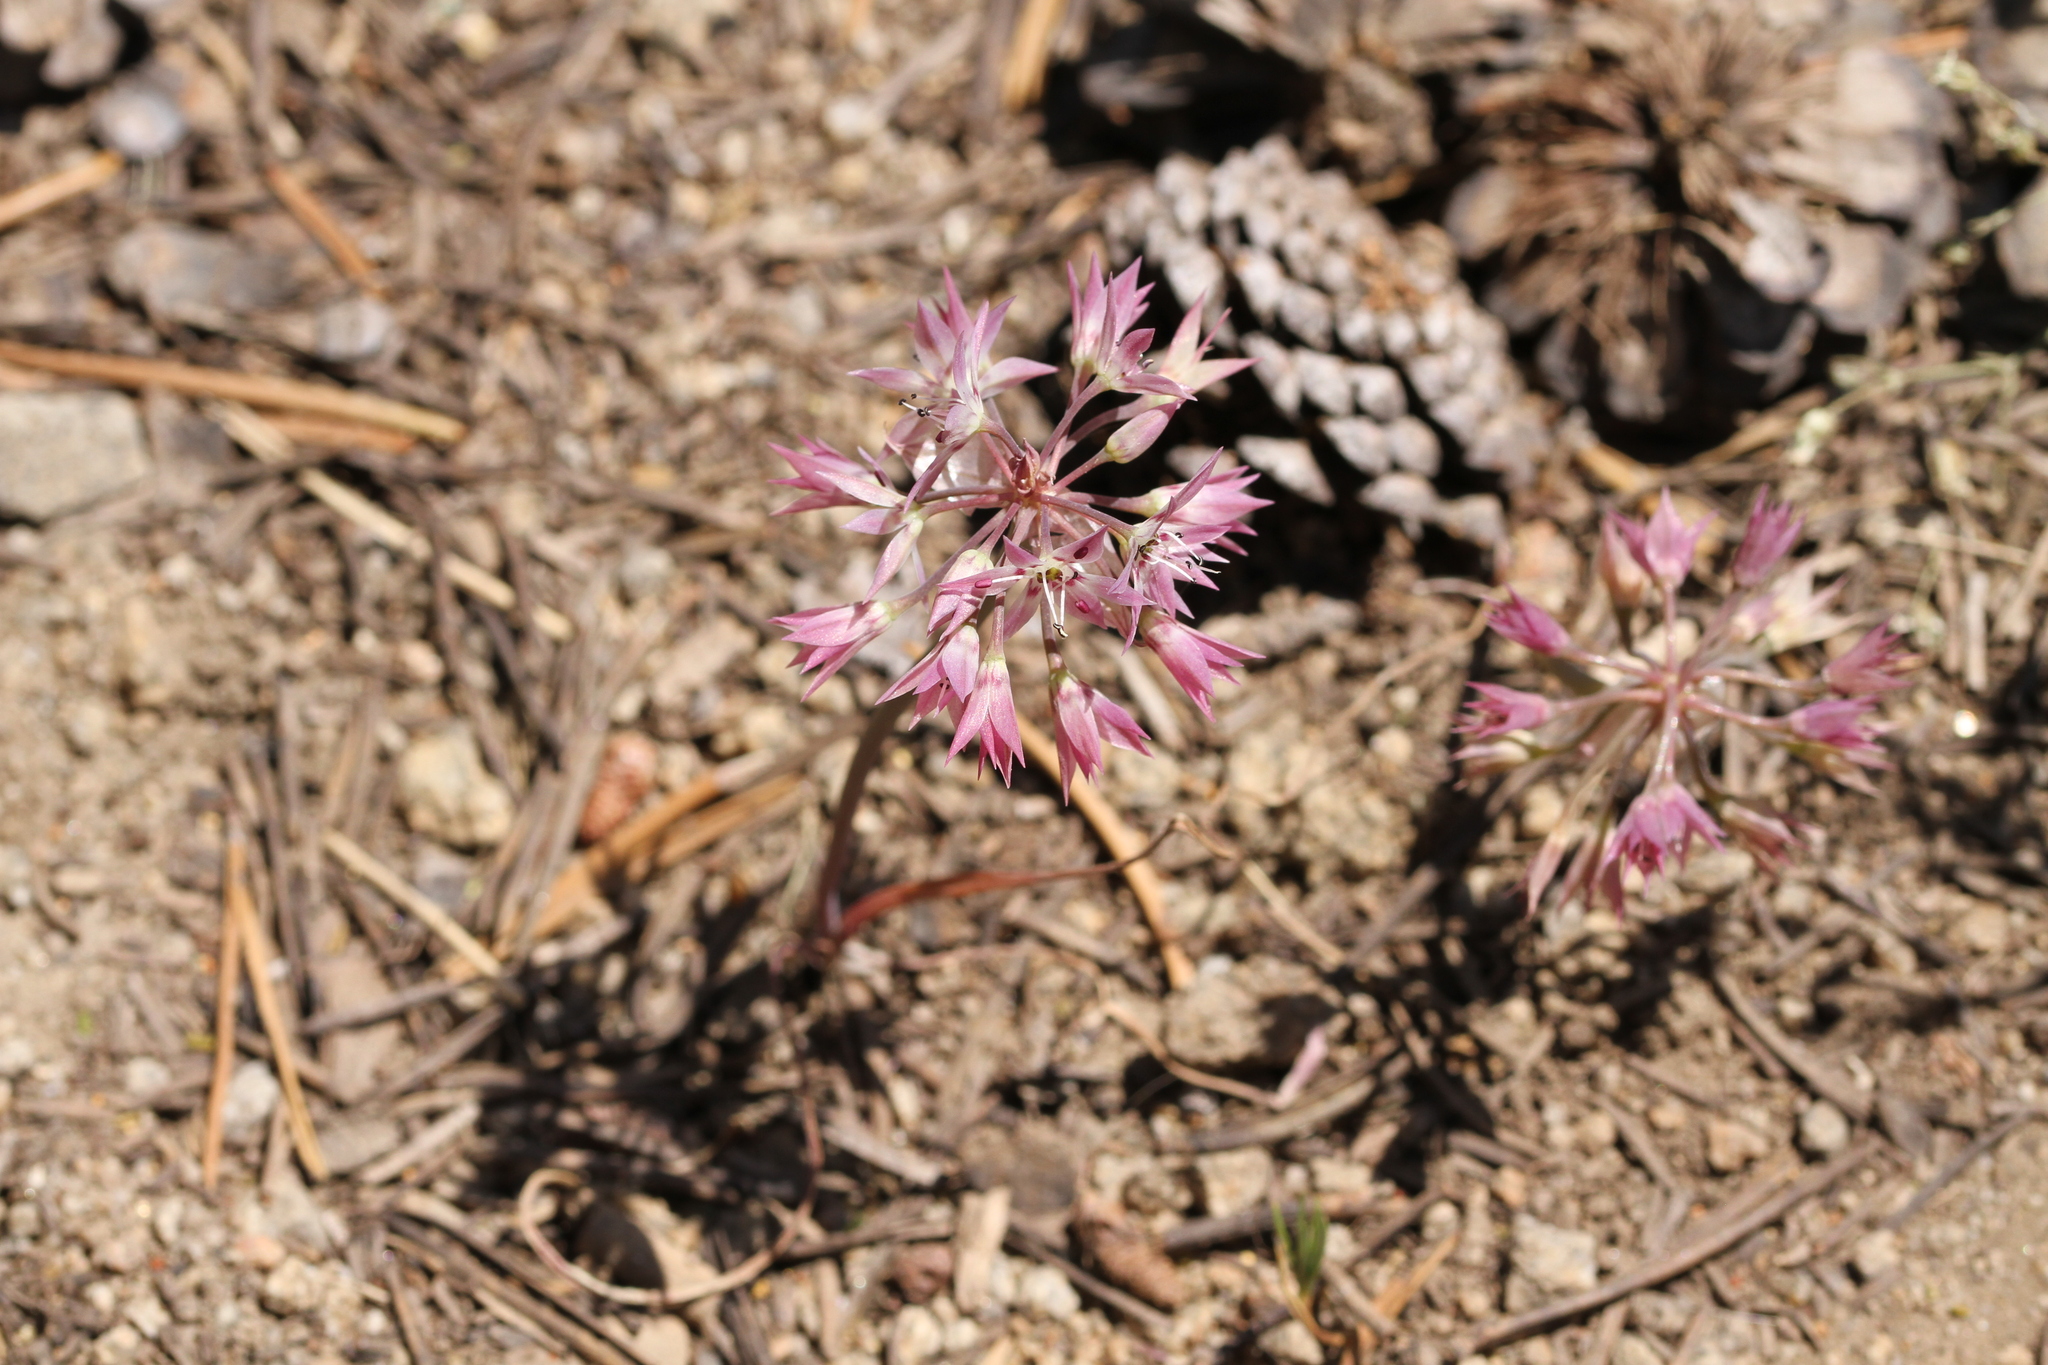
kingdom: Plantae
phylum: Tracheophyta
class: Liliopsida
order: Asparagales
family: Amaryllidaceae
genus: Allium
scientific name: Allium campanulatum
